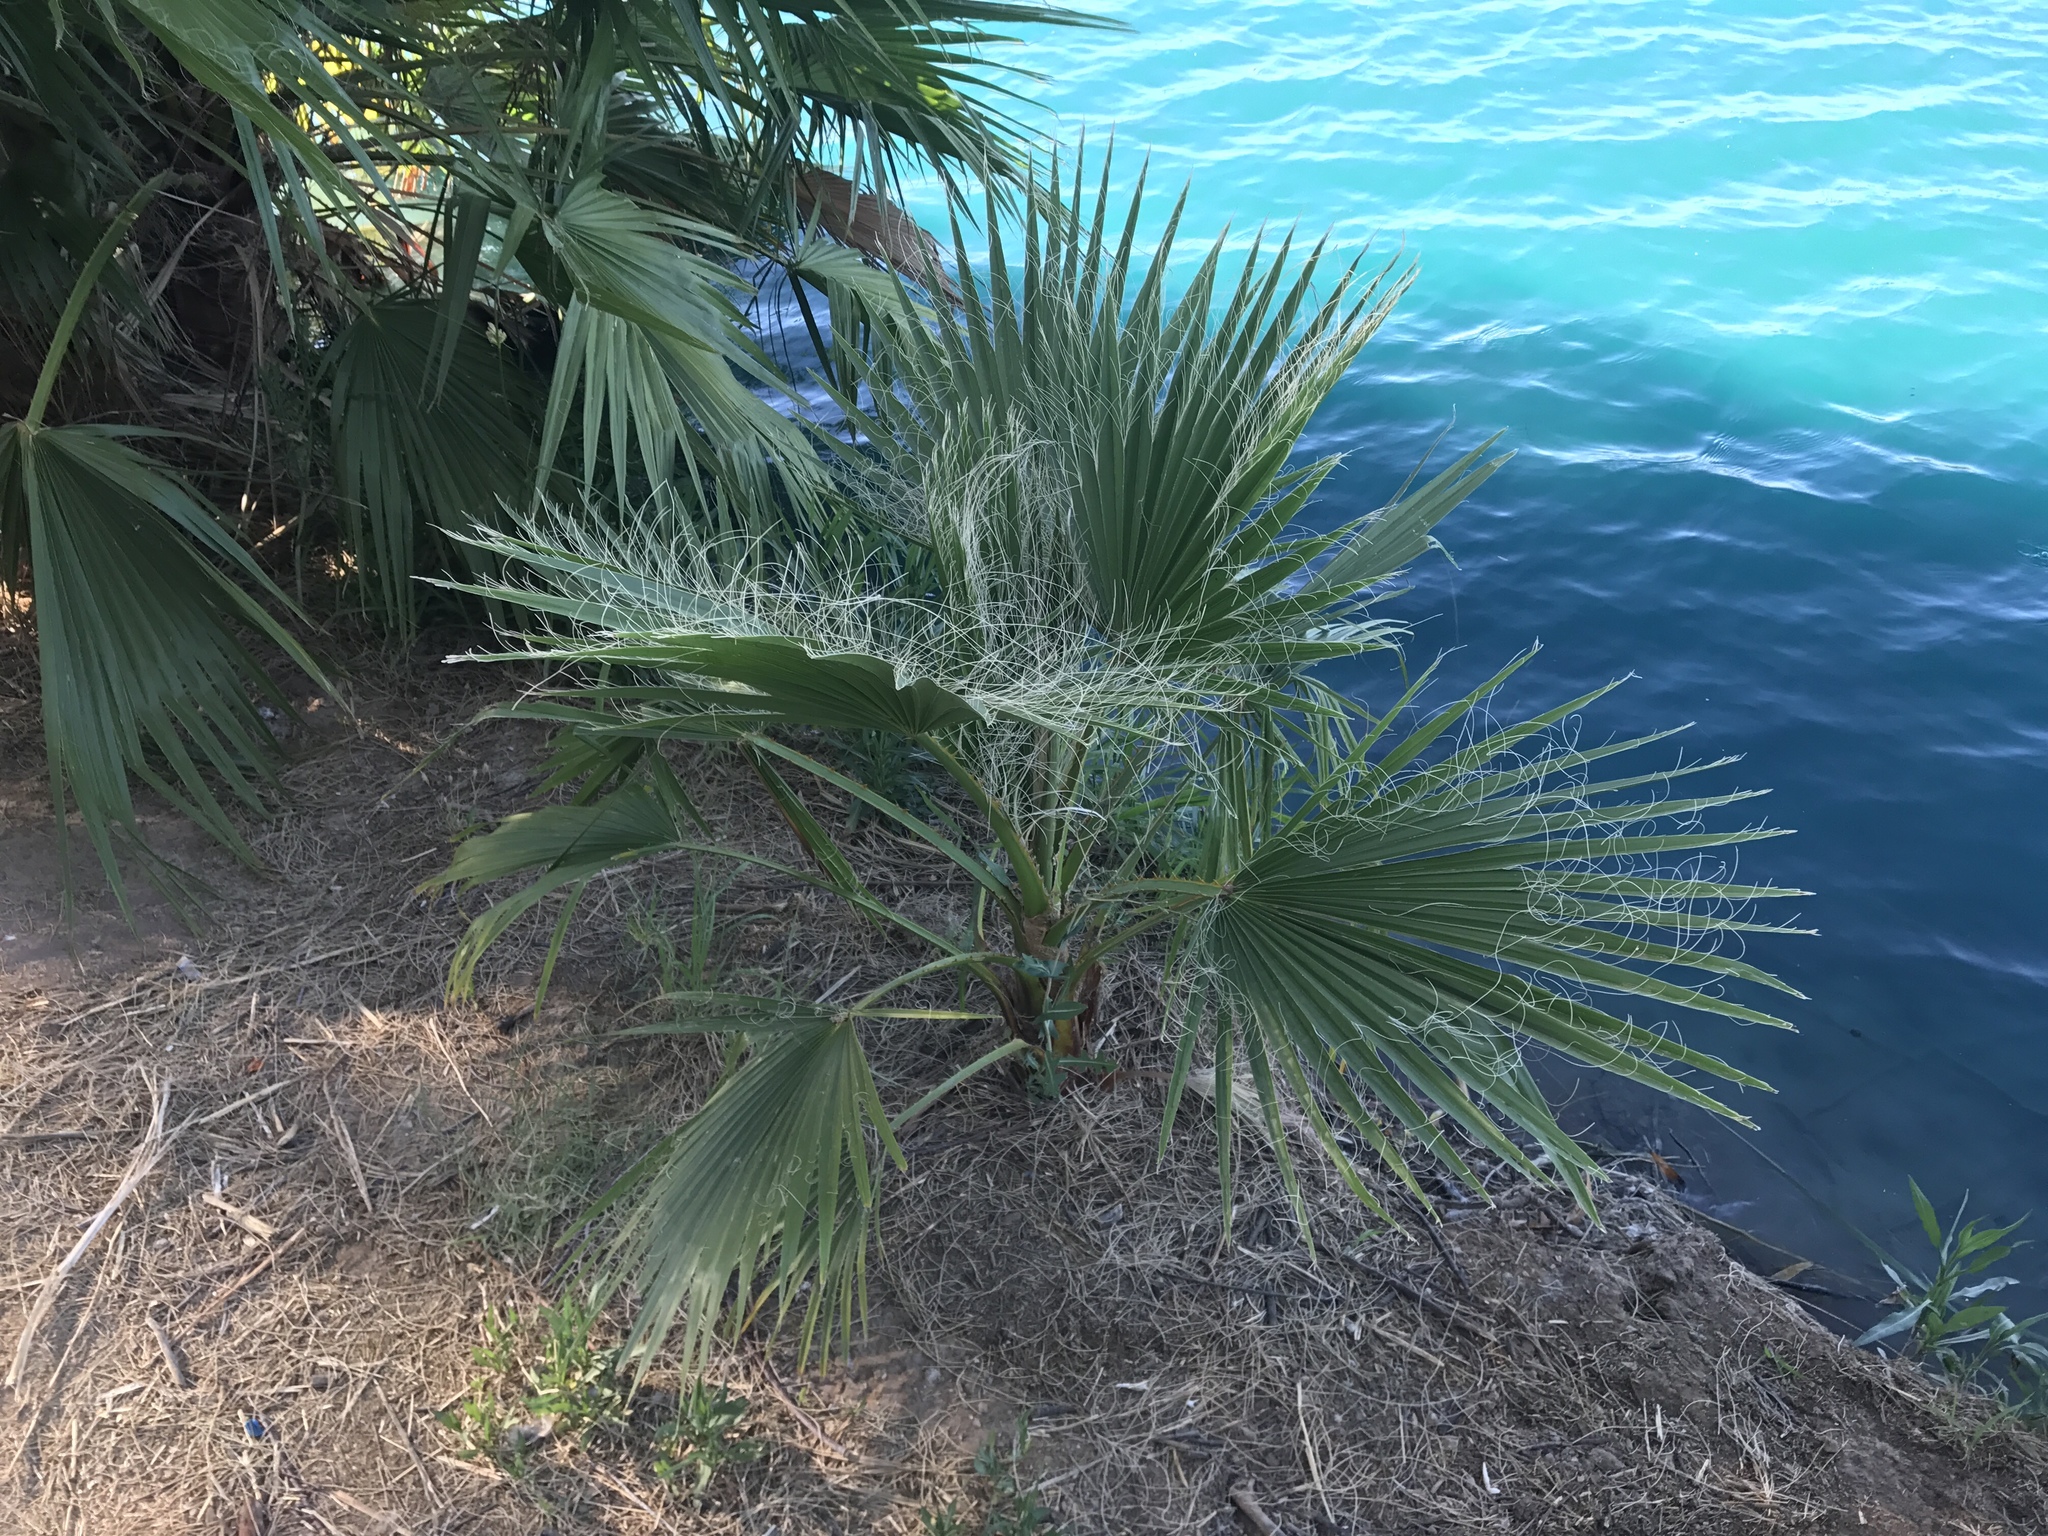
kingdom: Plantae
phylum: Tracheophyta
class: Liliopsida
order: Arecales
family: Arecaceae
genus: Washingtonia
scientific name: Washingtonia filifera
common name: California fan palm
